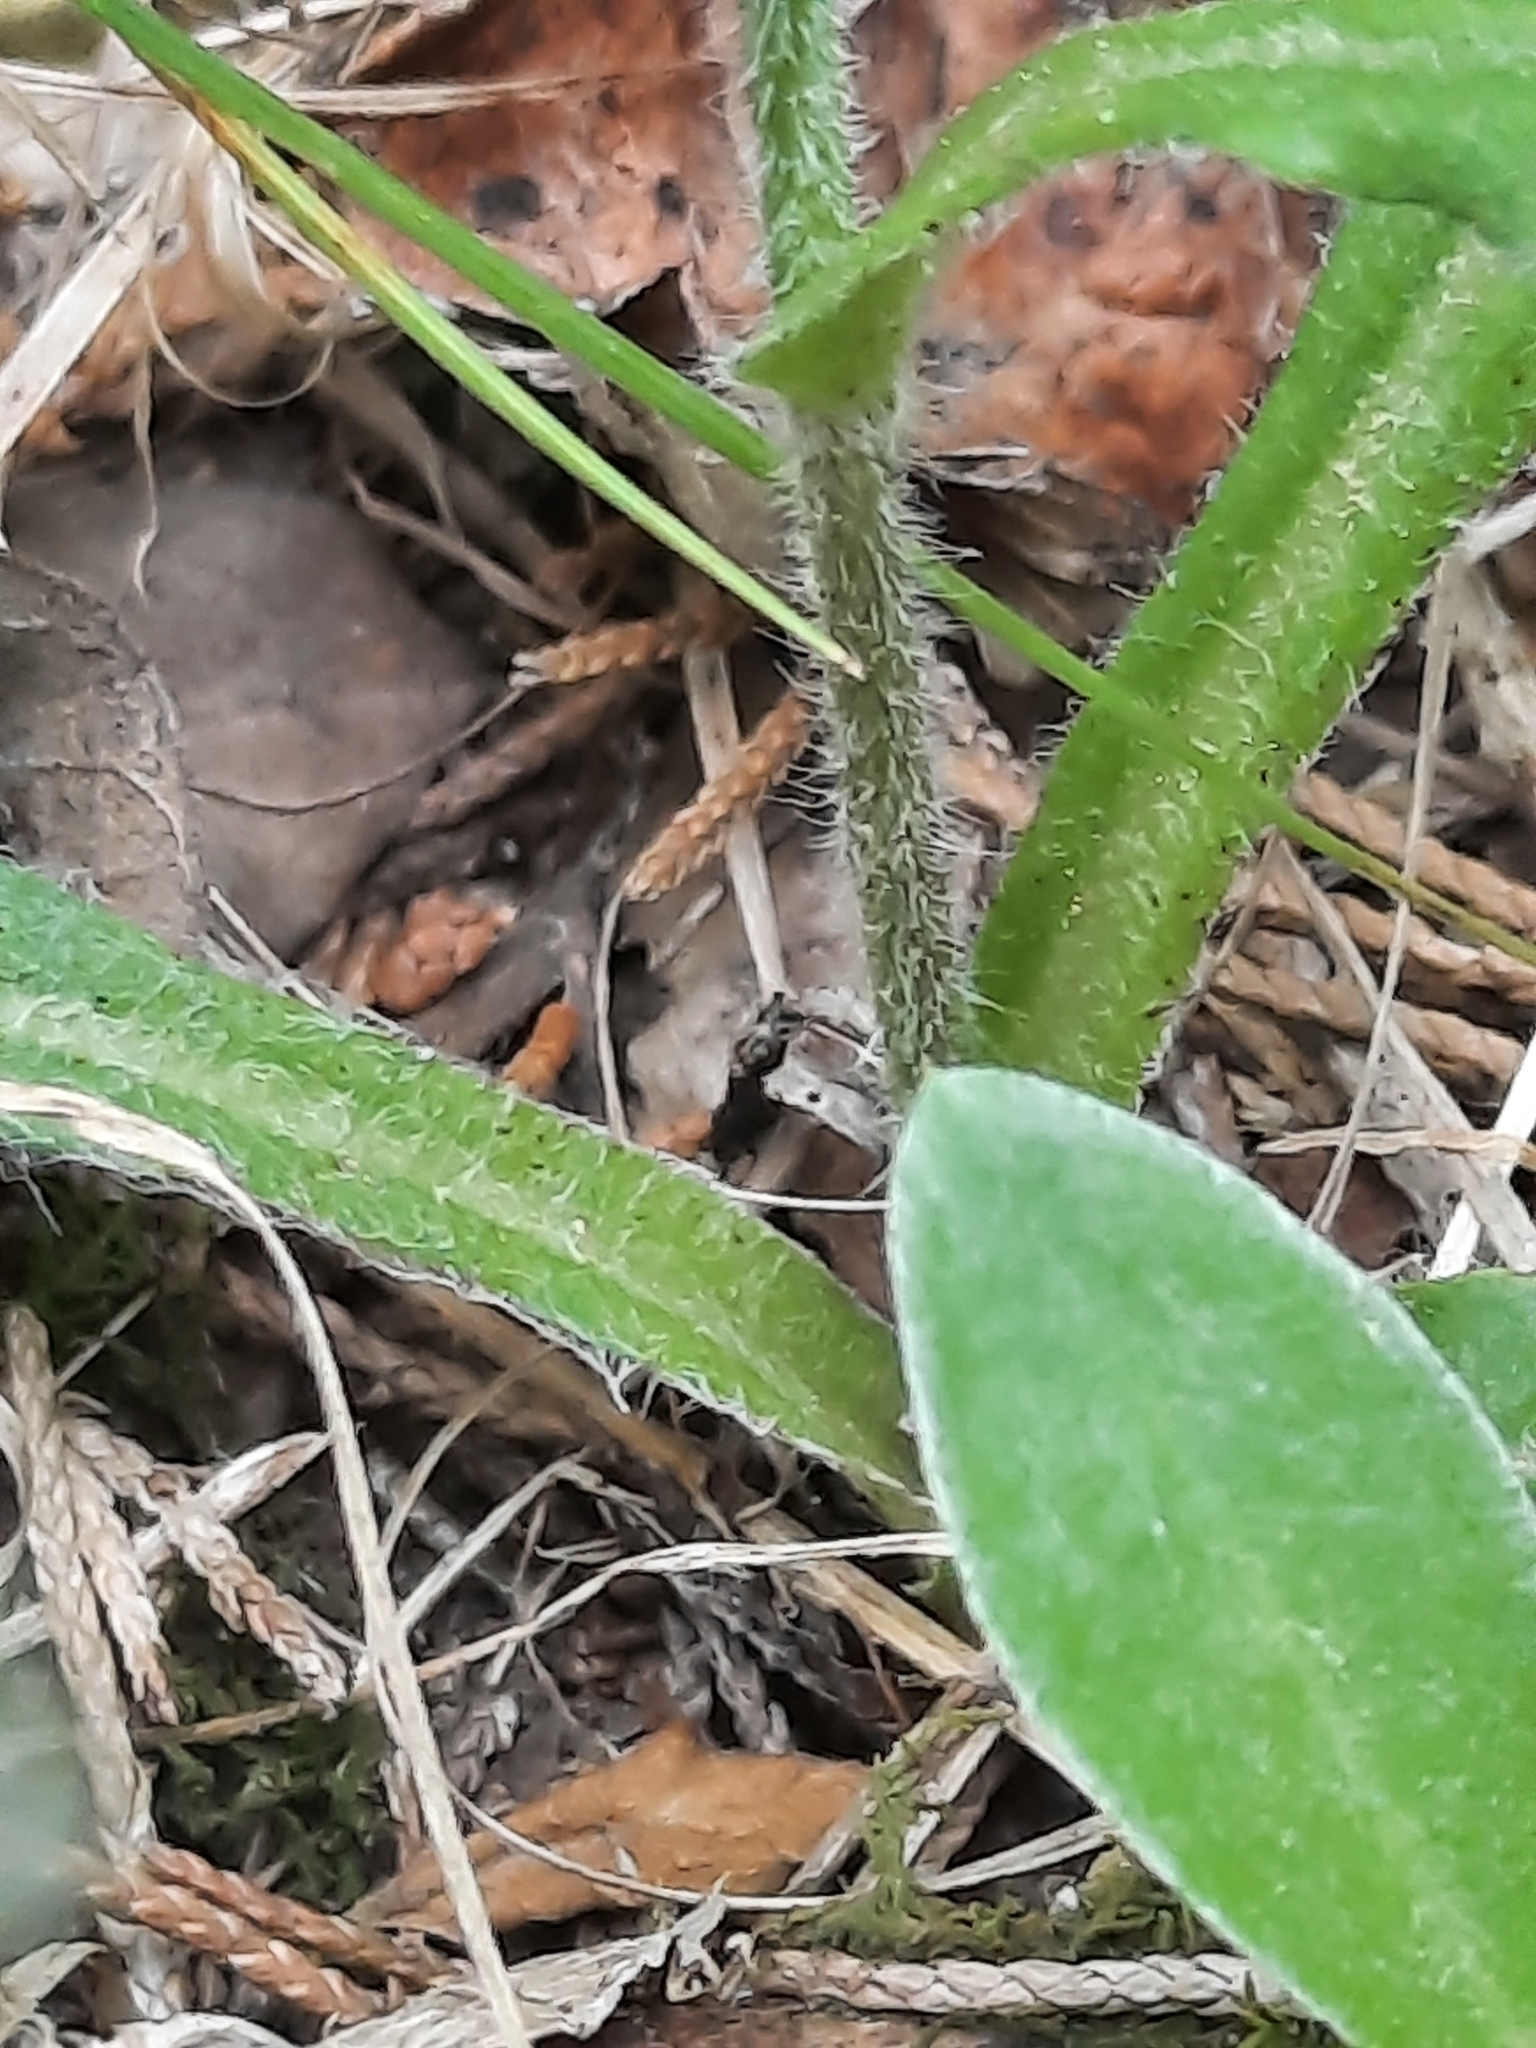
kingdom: Plantae
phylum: Tracheophyta
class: Magnoliopsida
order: Asterales
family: Asteraceae
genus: Erigeron
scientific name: Erigeron pulchellus
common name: Hairy fleabane
